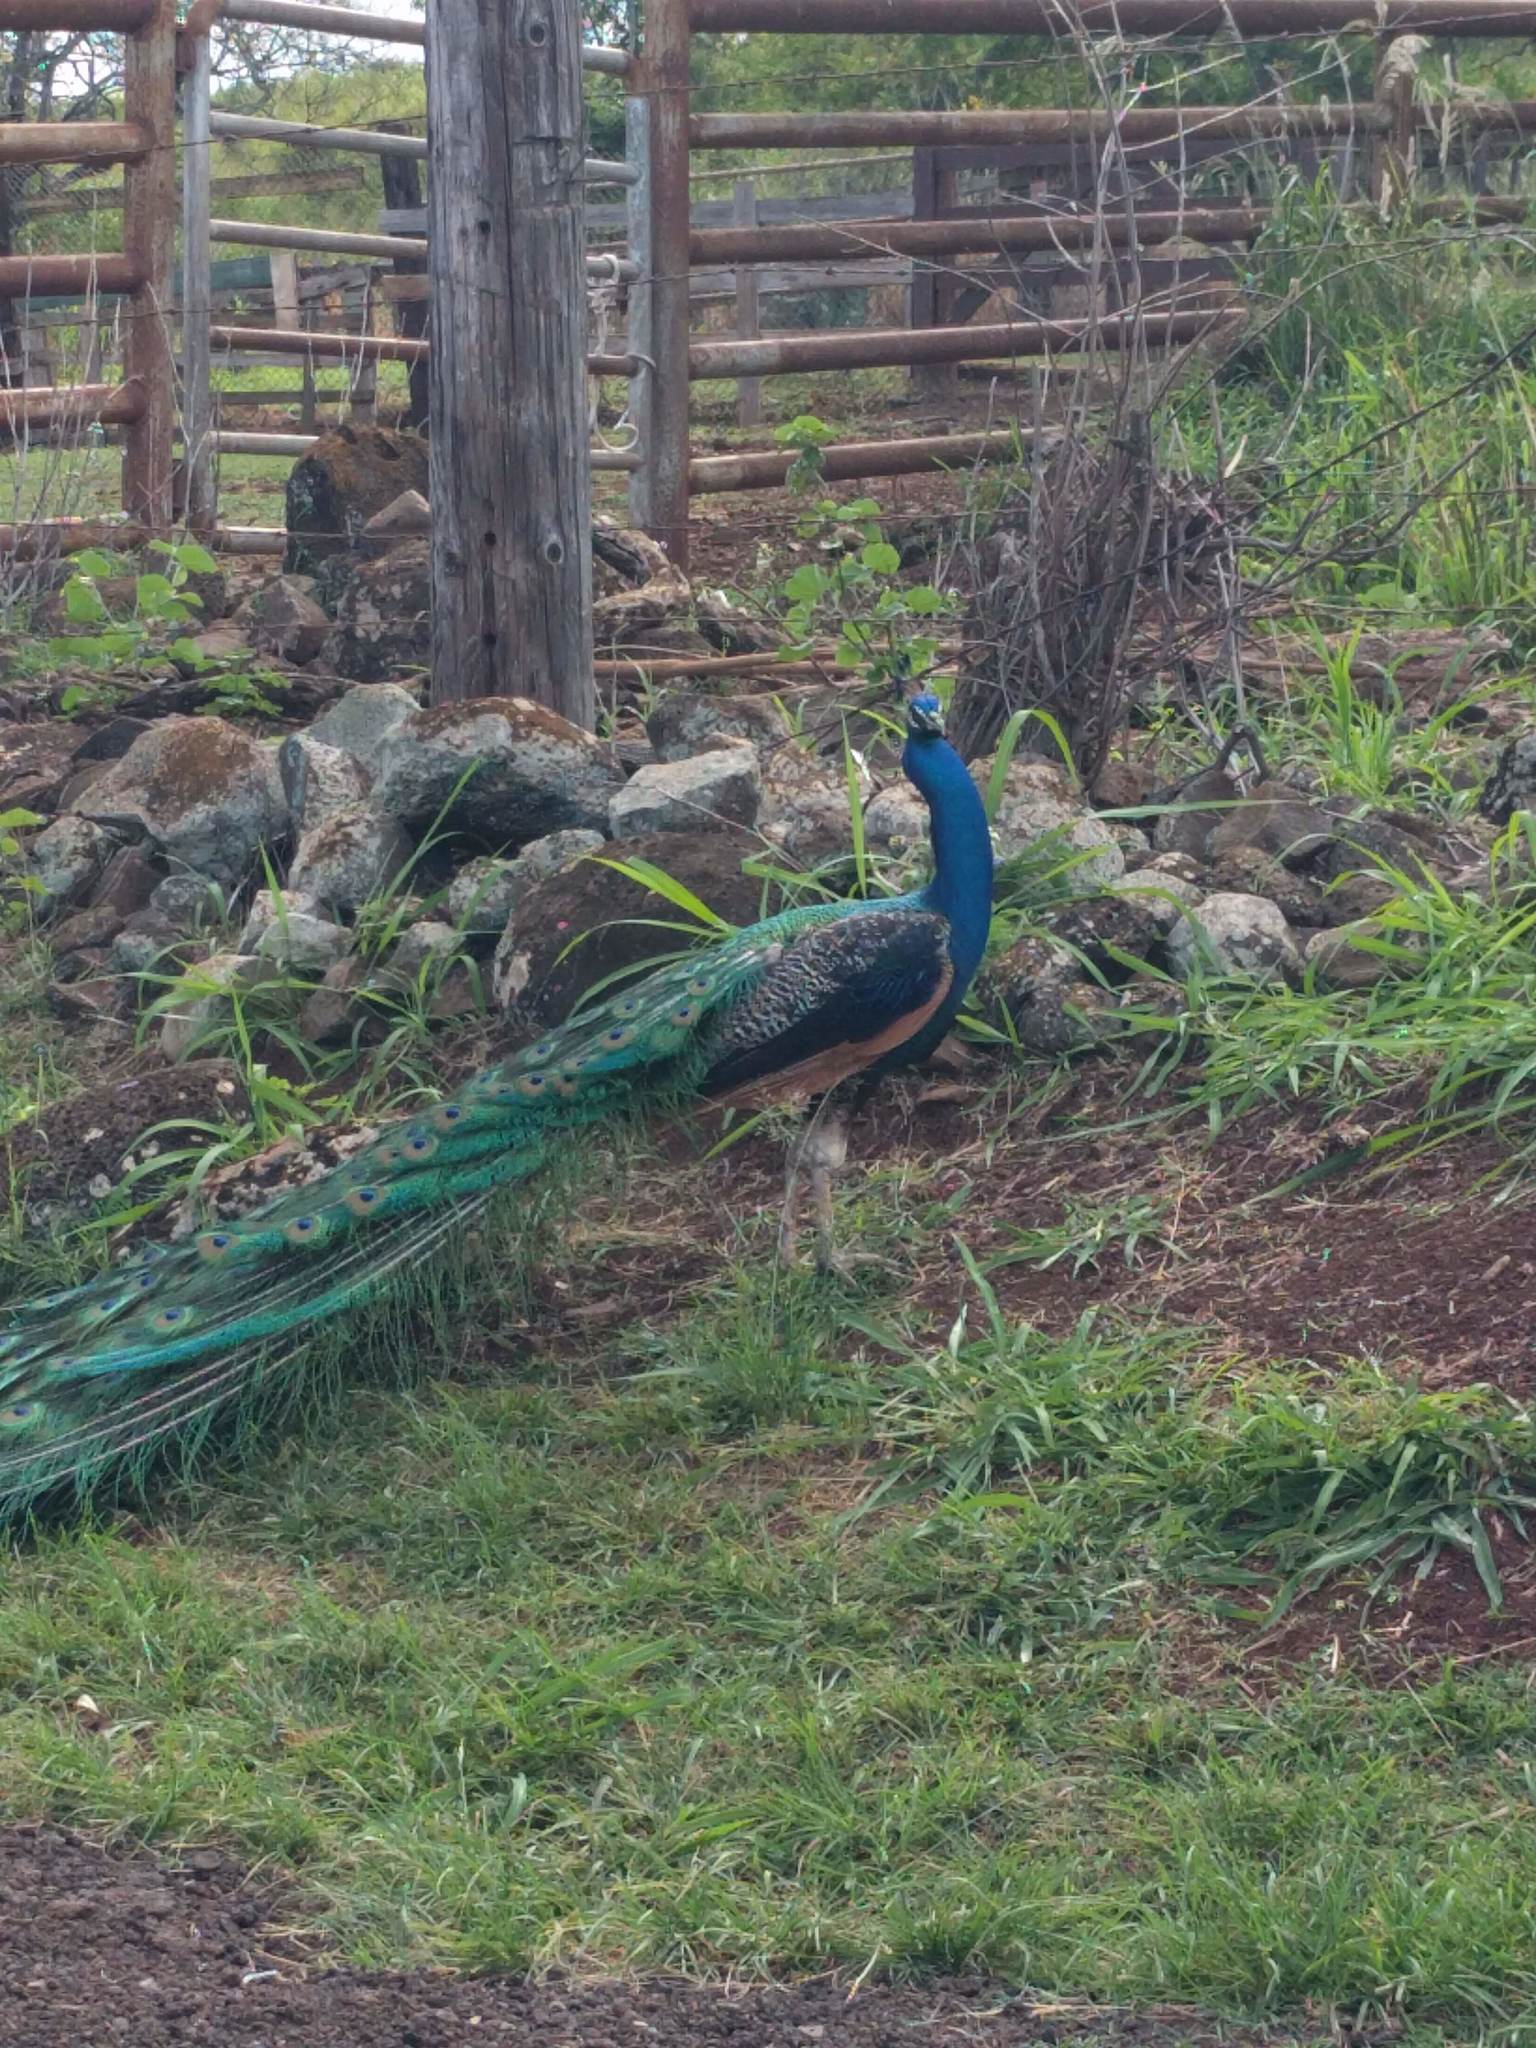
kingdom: Animalia
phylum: Chordata
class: Aves
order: Galliformes
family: Phasianidae
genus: Pavo
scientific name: Pavo cristatus
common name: Indian peafowl
